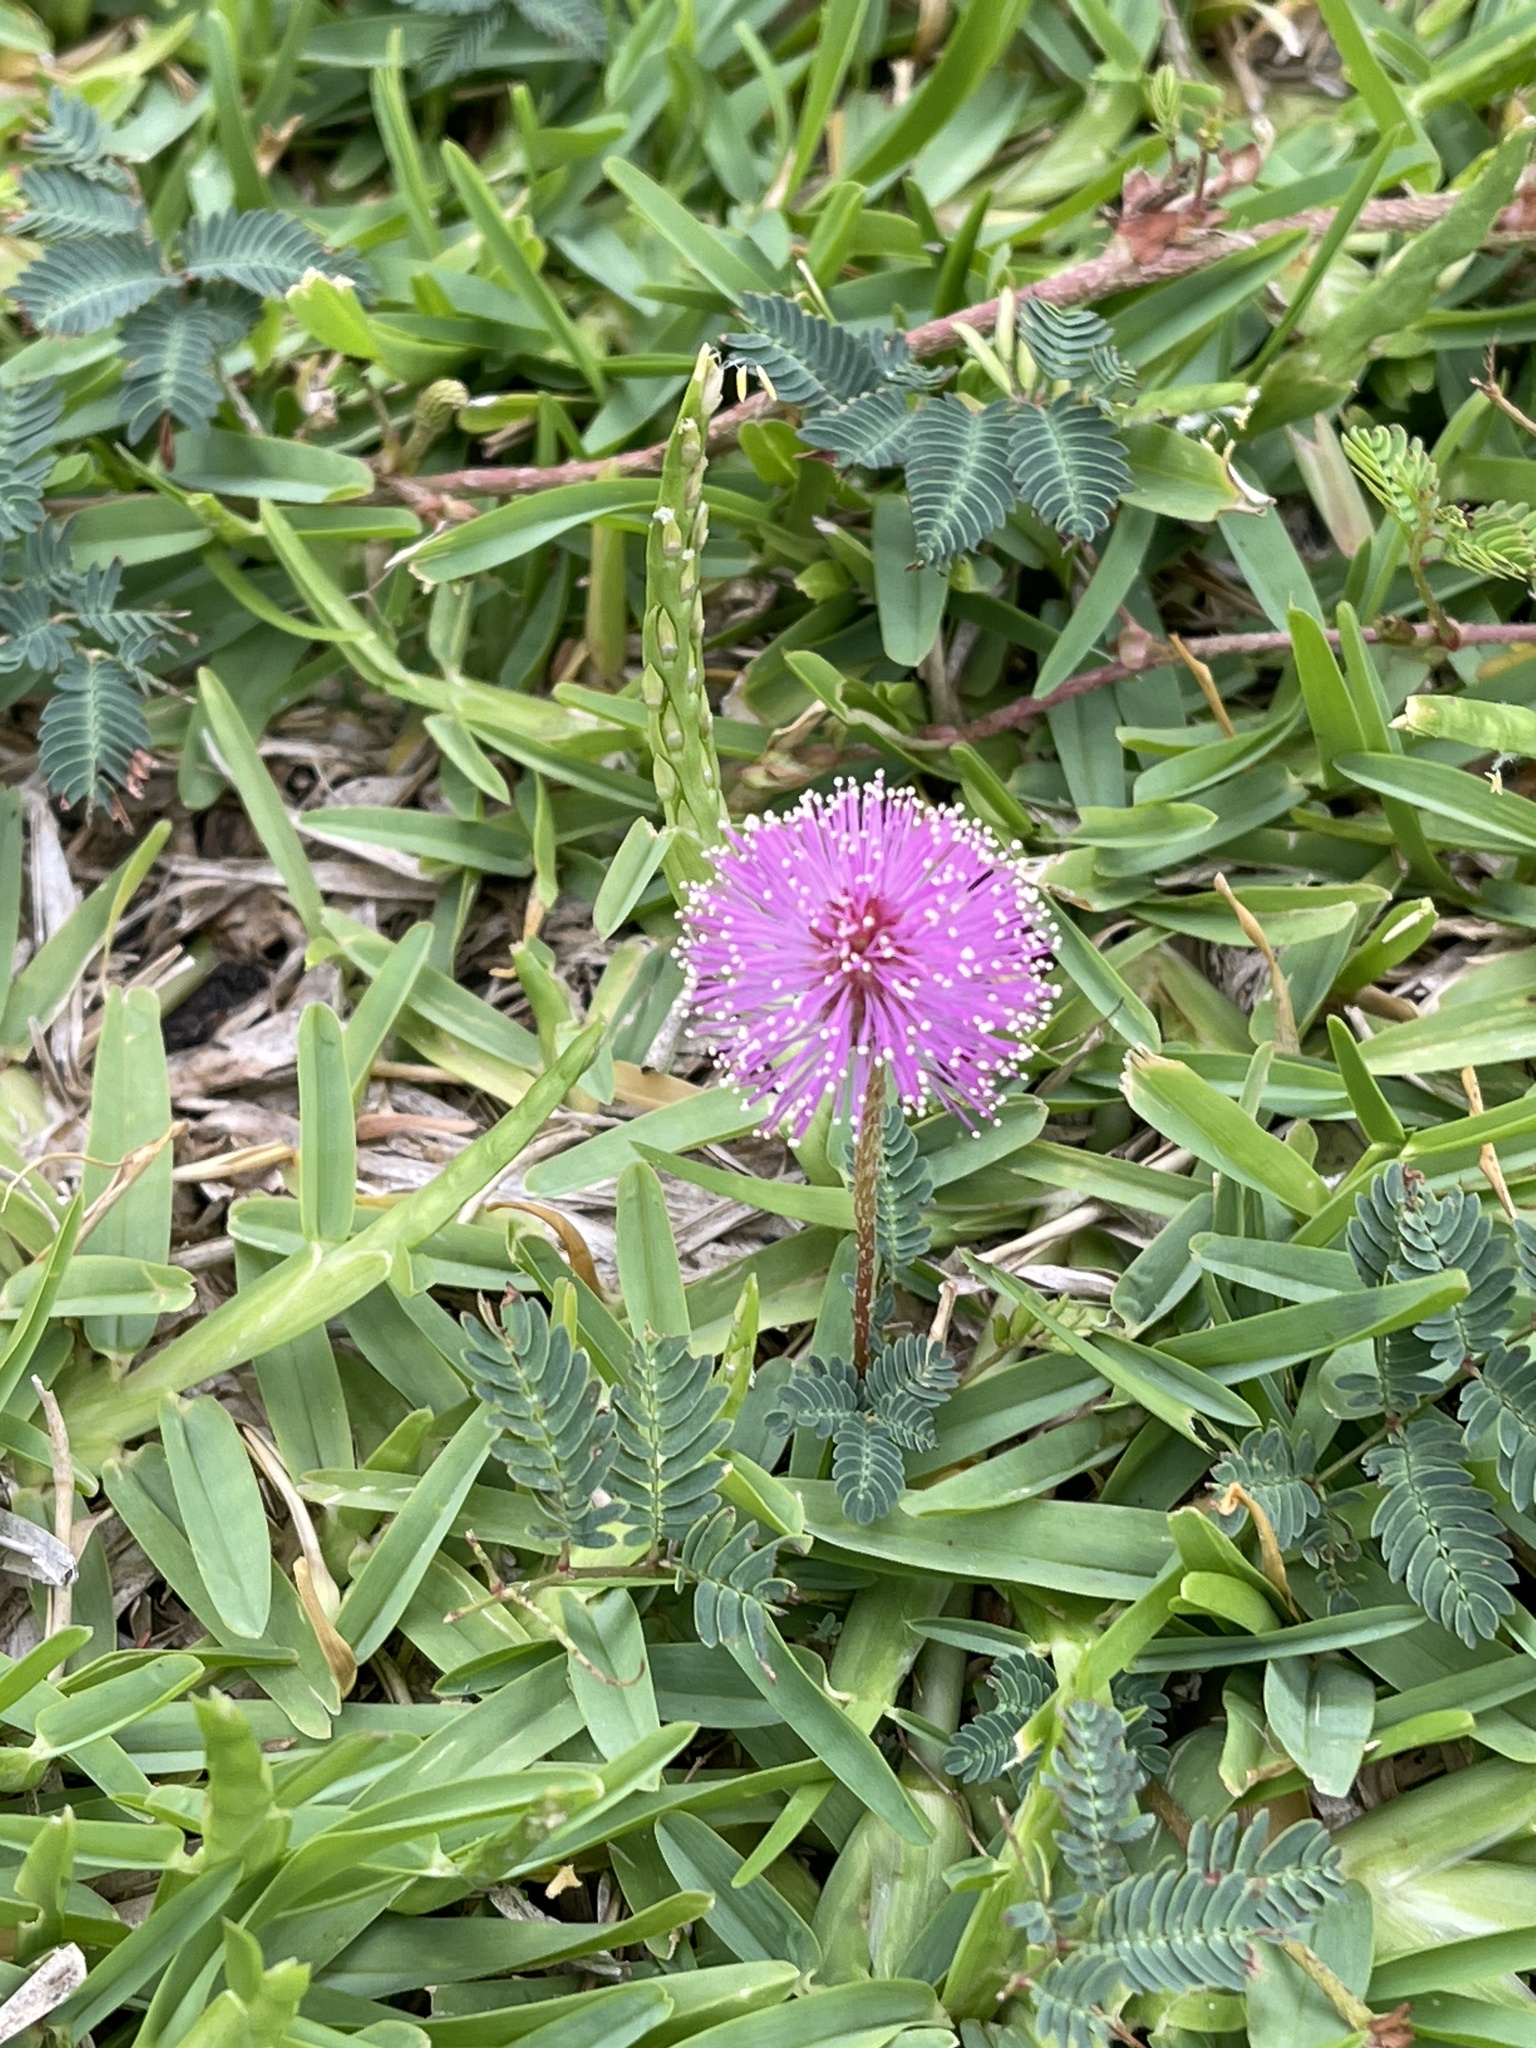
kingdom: Plantae
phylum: Tracheophyta
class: Magnoliopsida
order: Fabales
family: Fabaceae
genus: Mimosa
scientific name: Mimosa strigillosa
